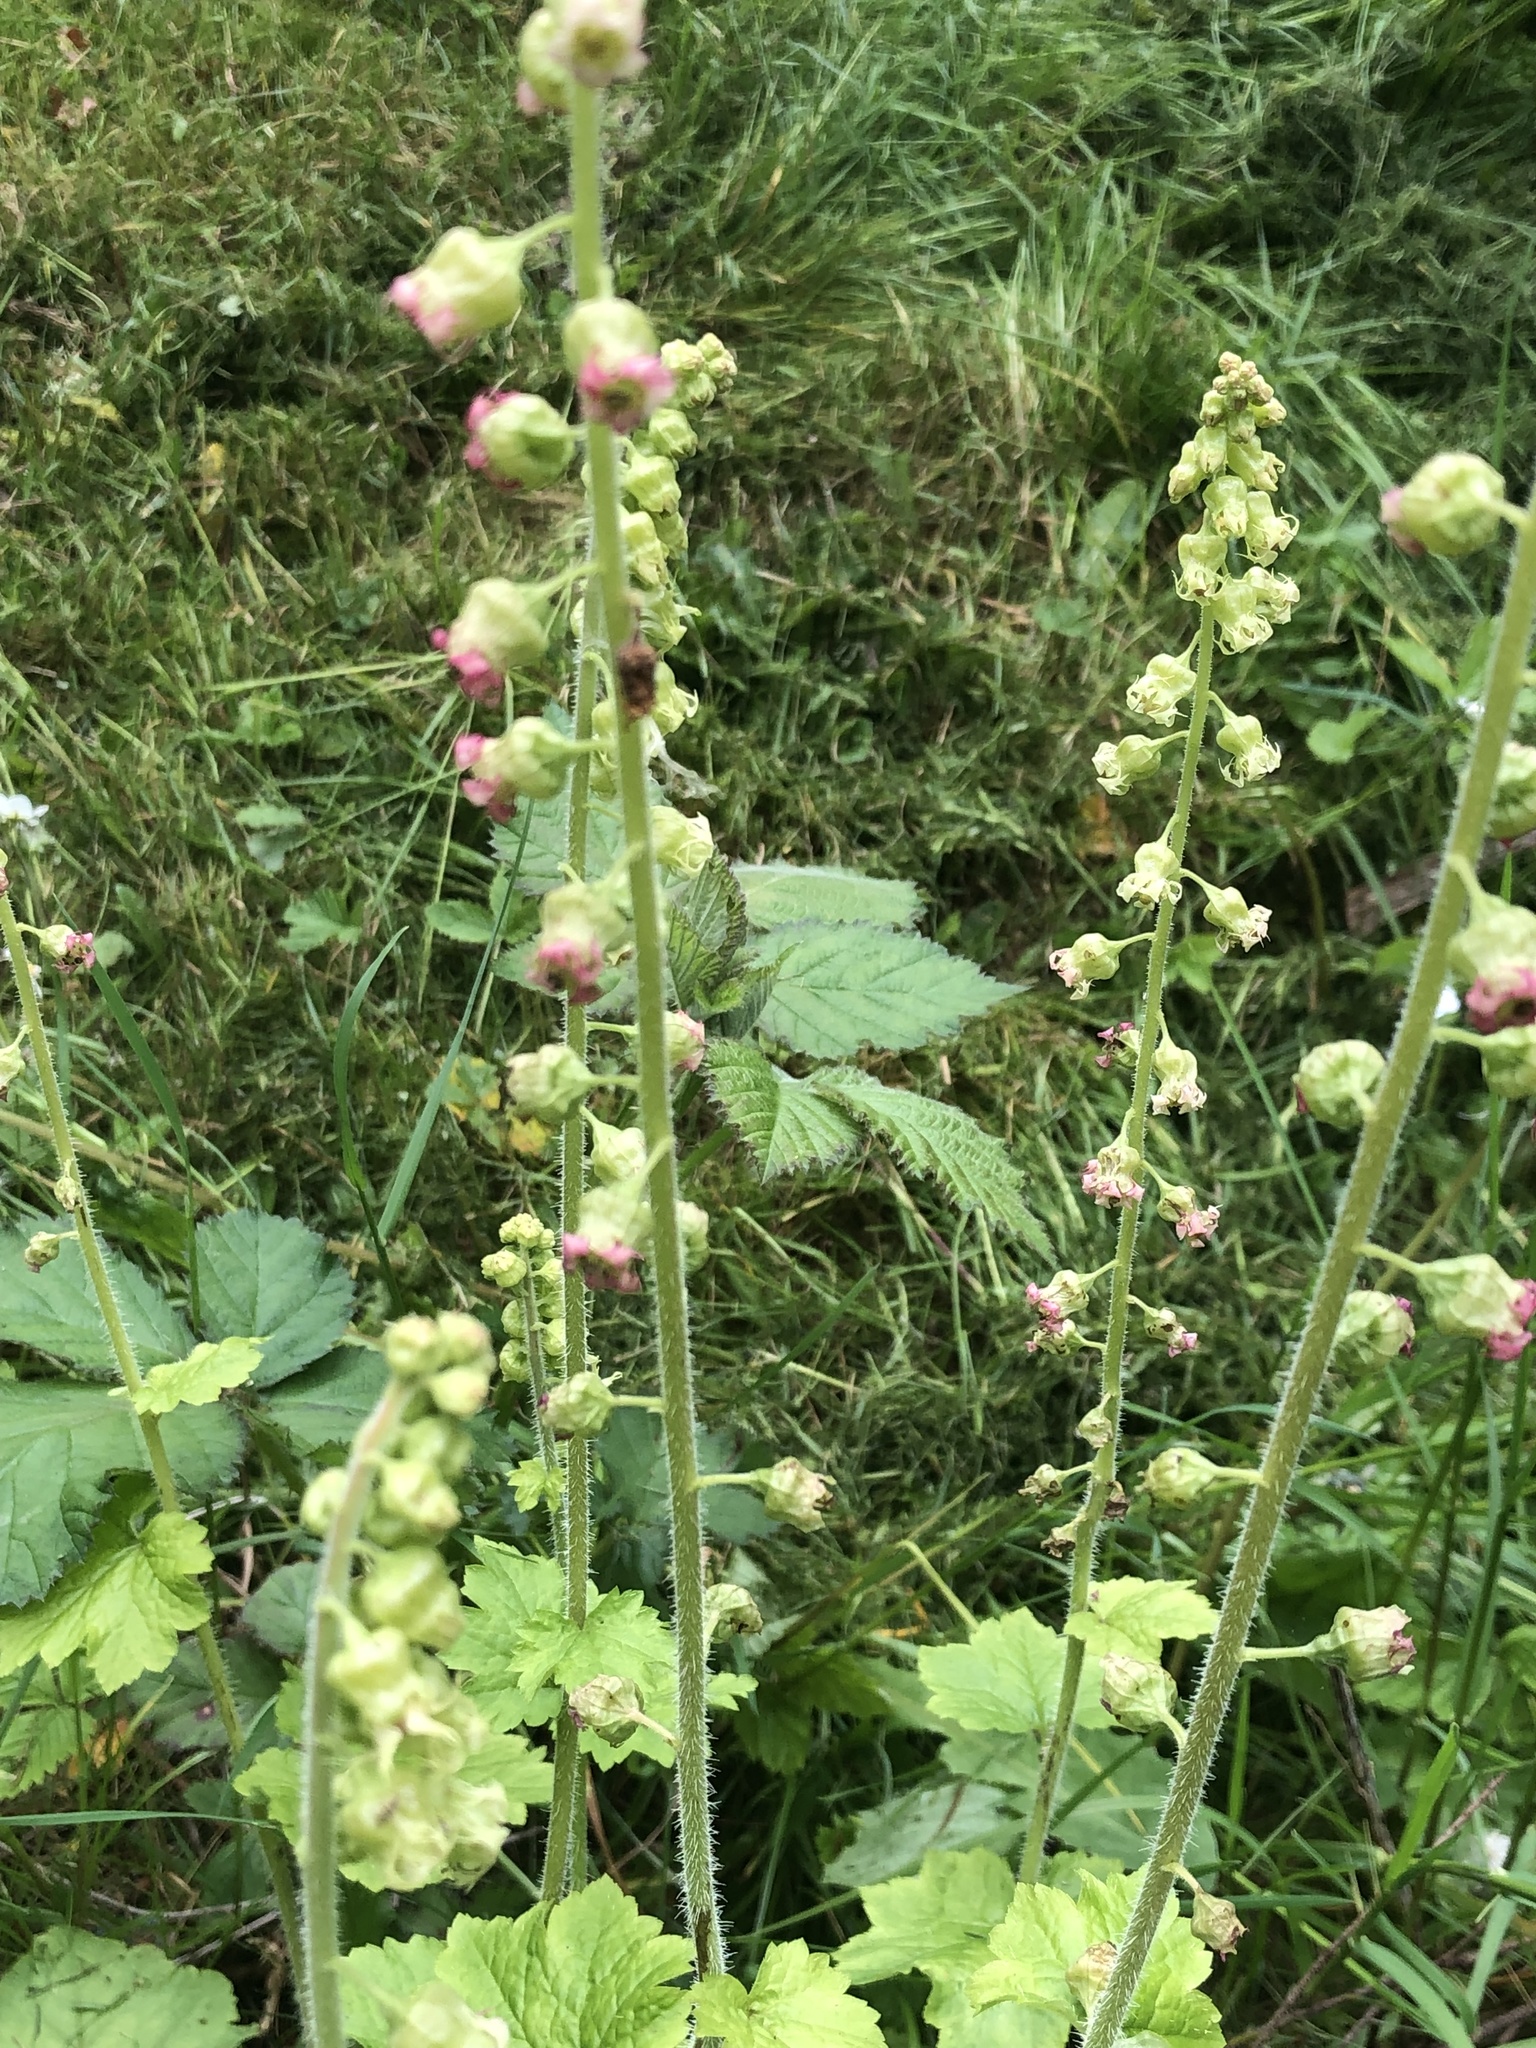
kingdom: Plantae
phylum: Tracheophyta
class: Magnoliopsida
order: Saxifragales
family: Saxifragaceae
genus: Tellima
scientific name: Tellima grandiflora
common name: Fringecups
